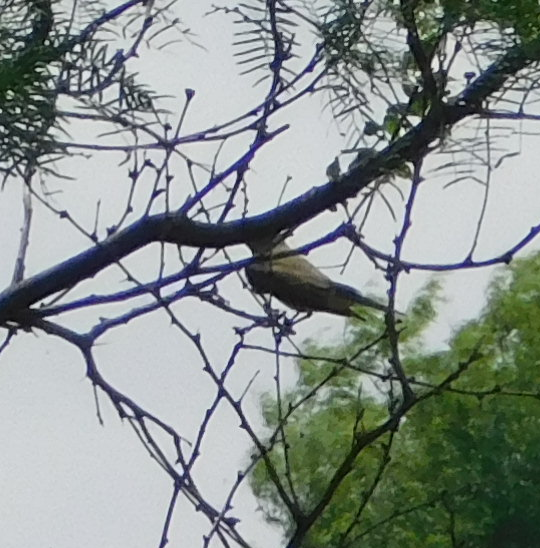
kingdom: Animalia
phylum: Chordata
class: Aves
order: Passeriformes
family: Tyrannidae
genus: Tyrannus
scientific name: Tyrannus verticalis
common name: Western kingbird
